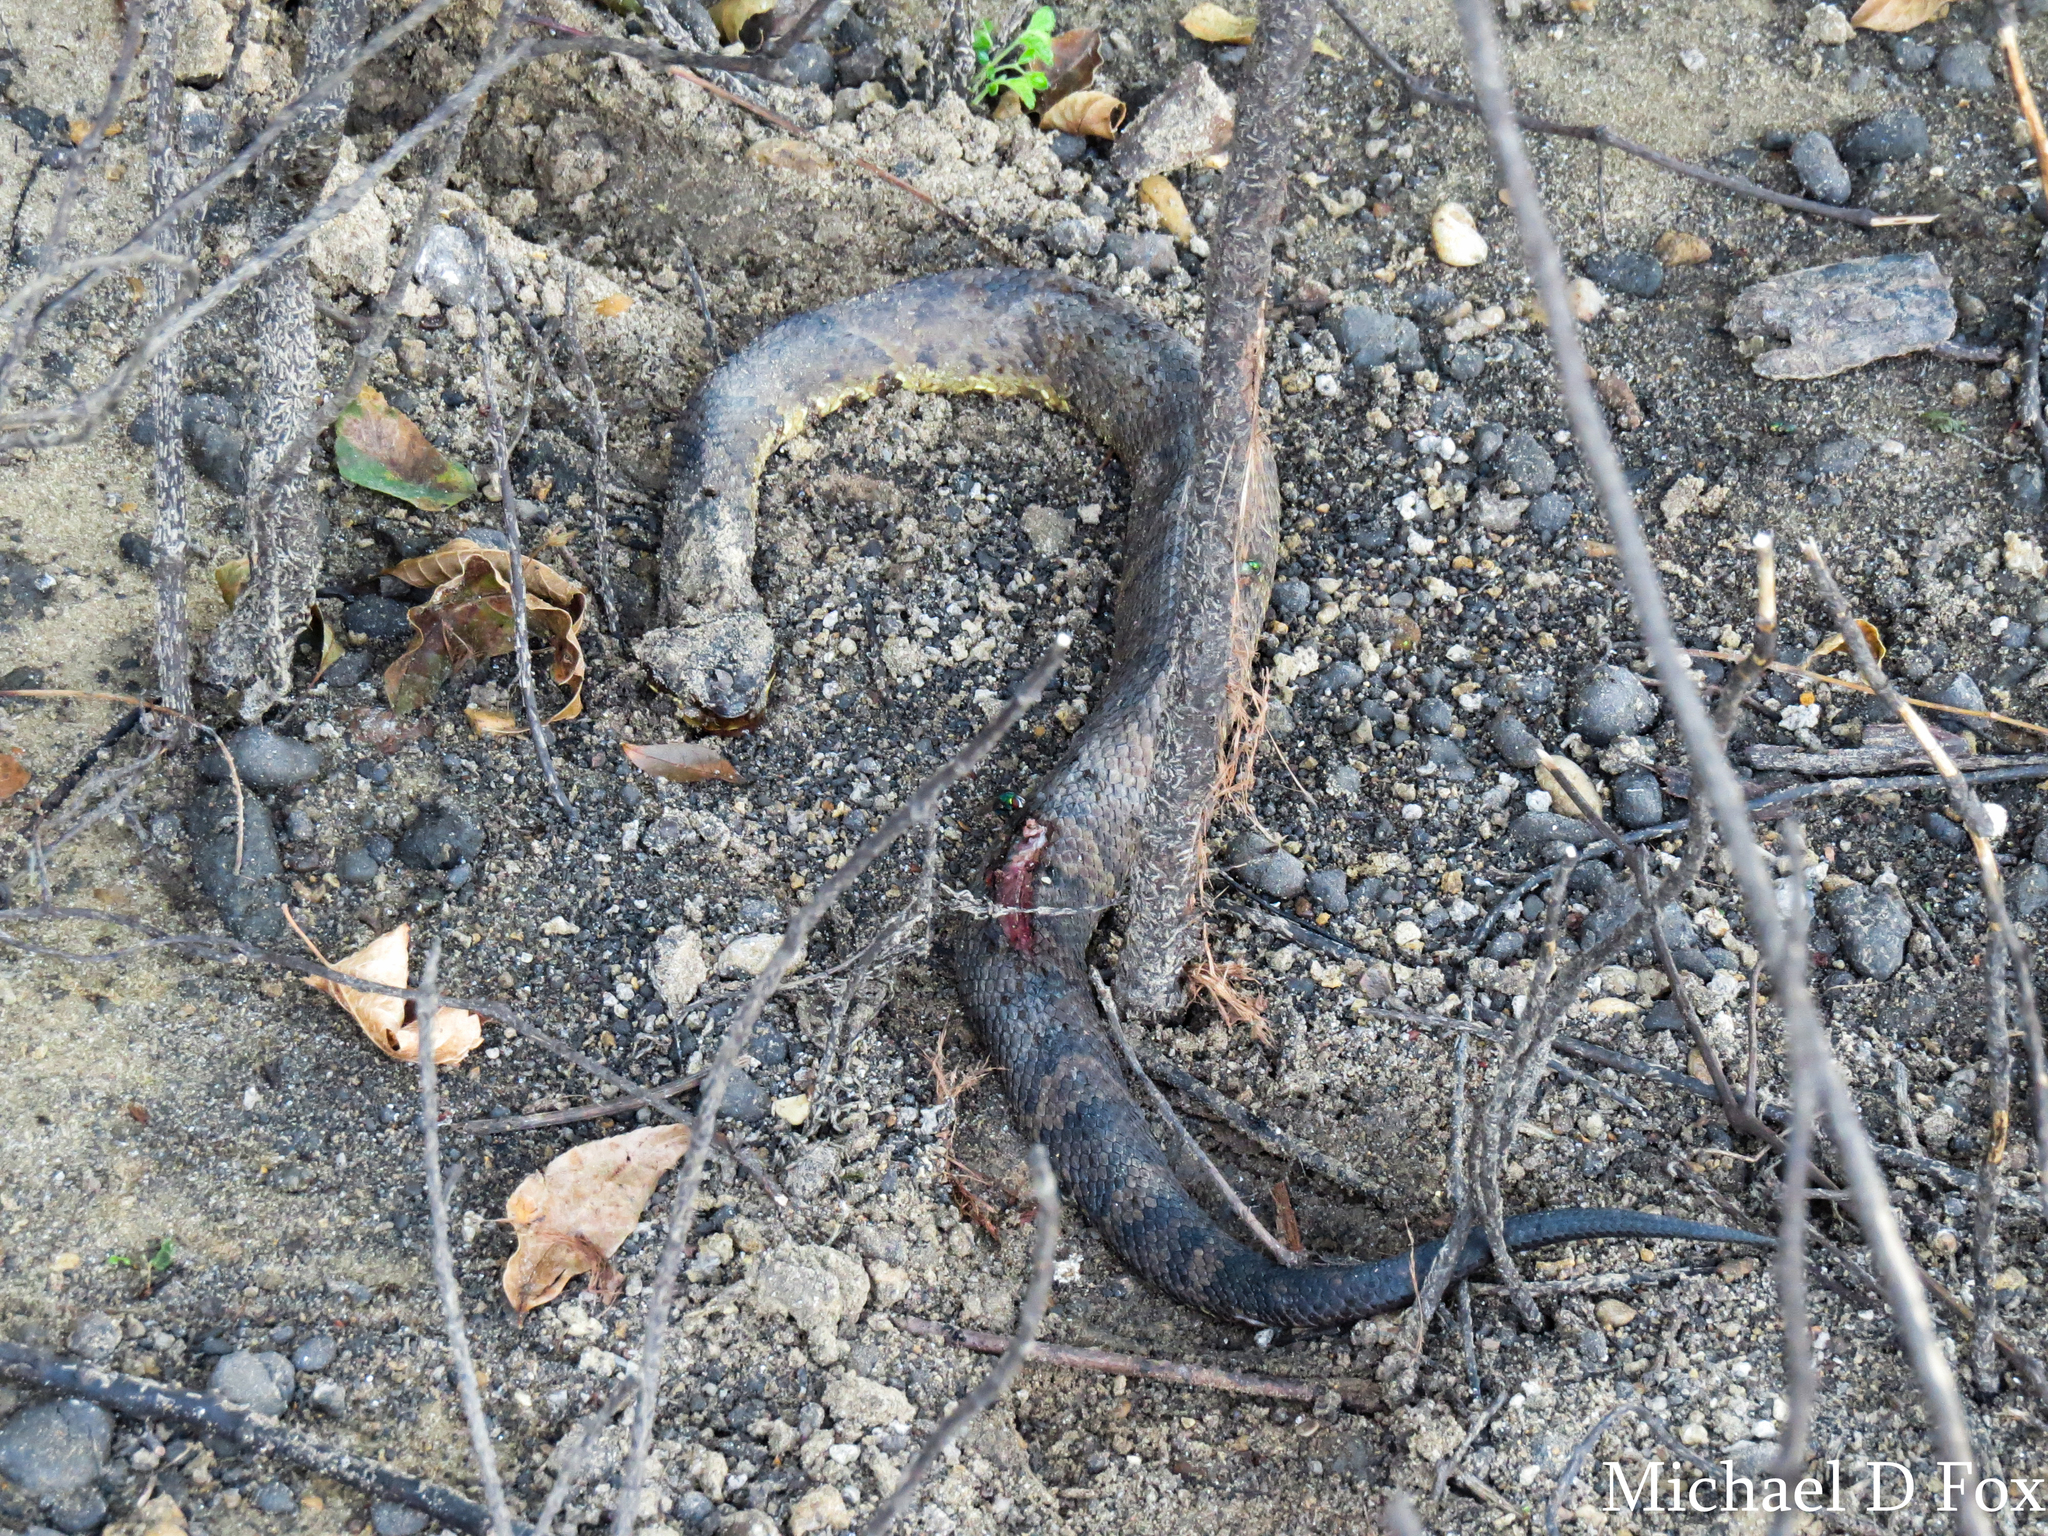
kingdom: Animalia
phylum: Chordata
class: Squamata
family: Viperidae
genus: Agkistrodon
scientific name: Agkistrodon piscivorus
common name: Cottonmouth
